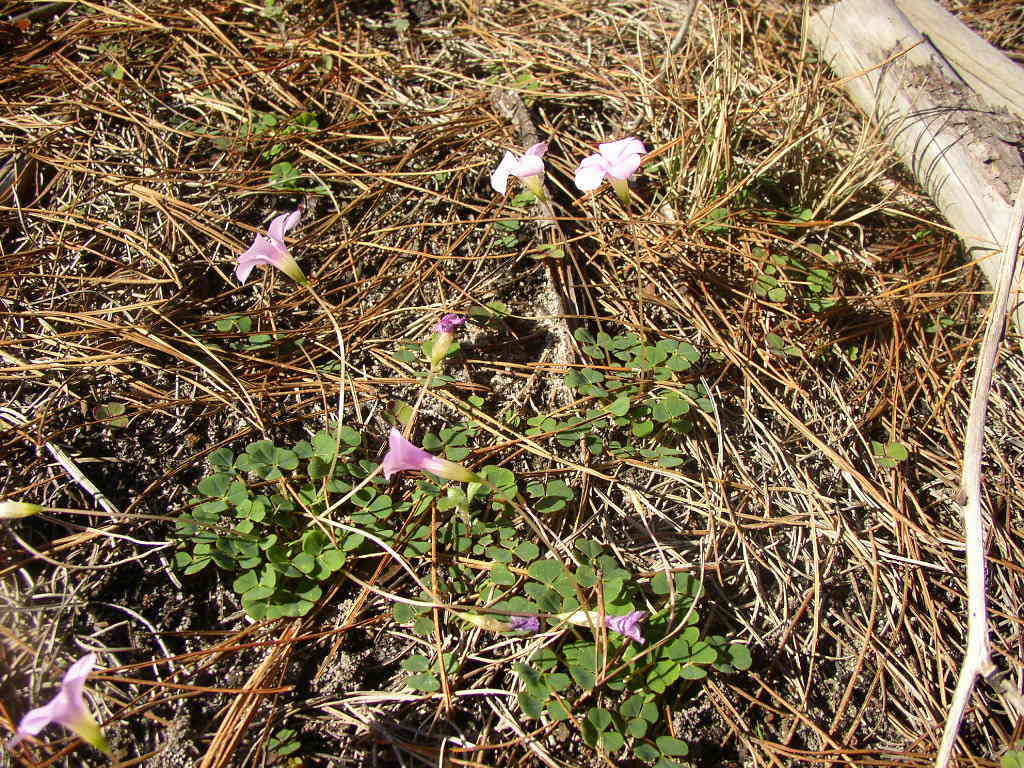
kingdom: Plantae
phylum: Tracheophyta
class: Magnoliopsida
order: Oxalidales
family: Oxalidaceae
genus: Oxalis
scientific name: Oxalis commutata
